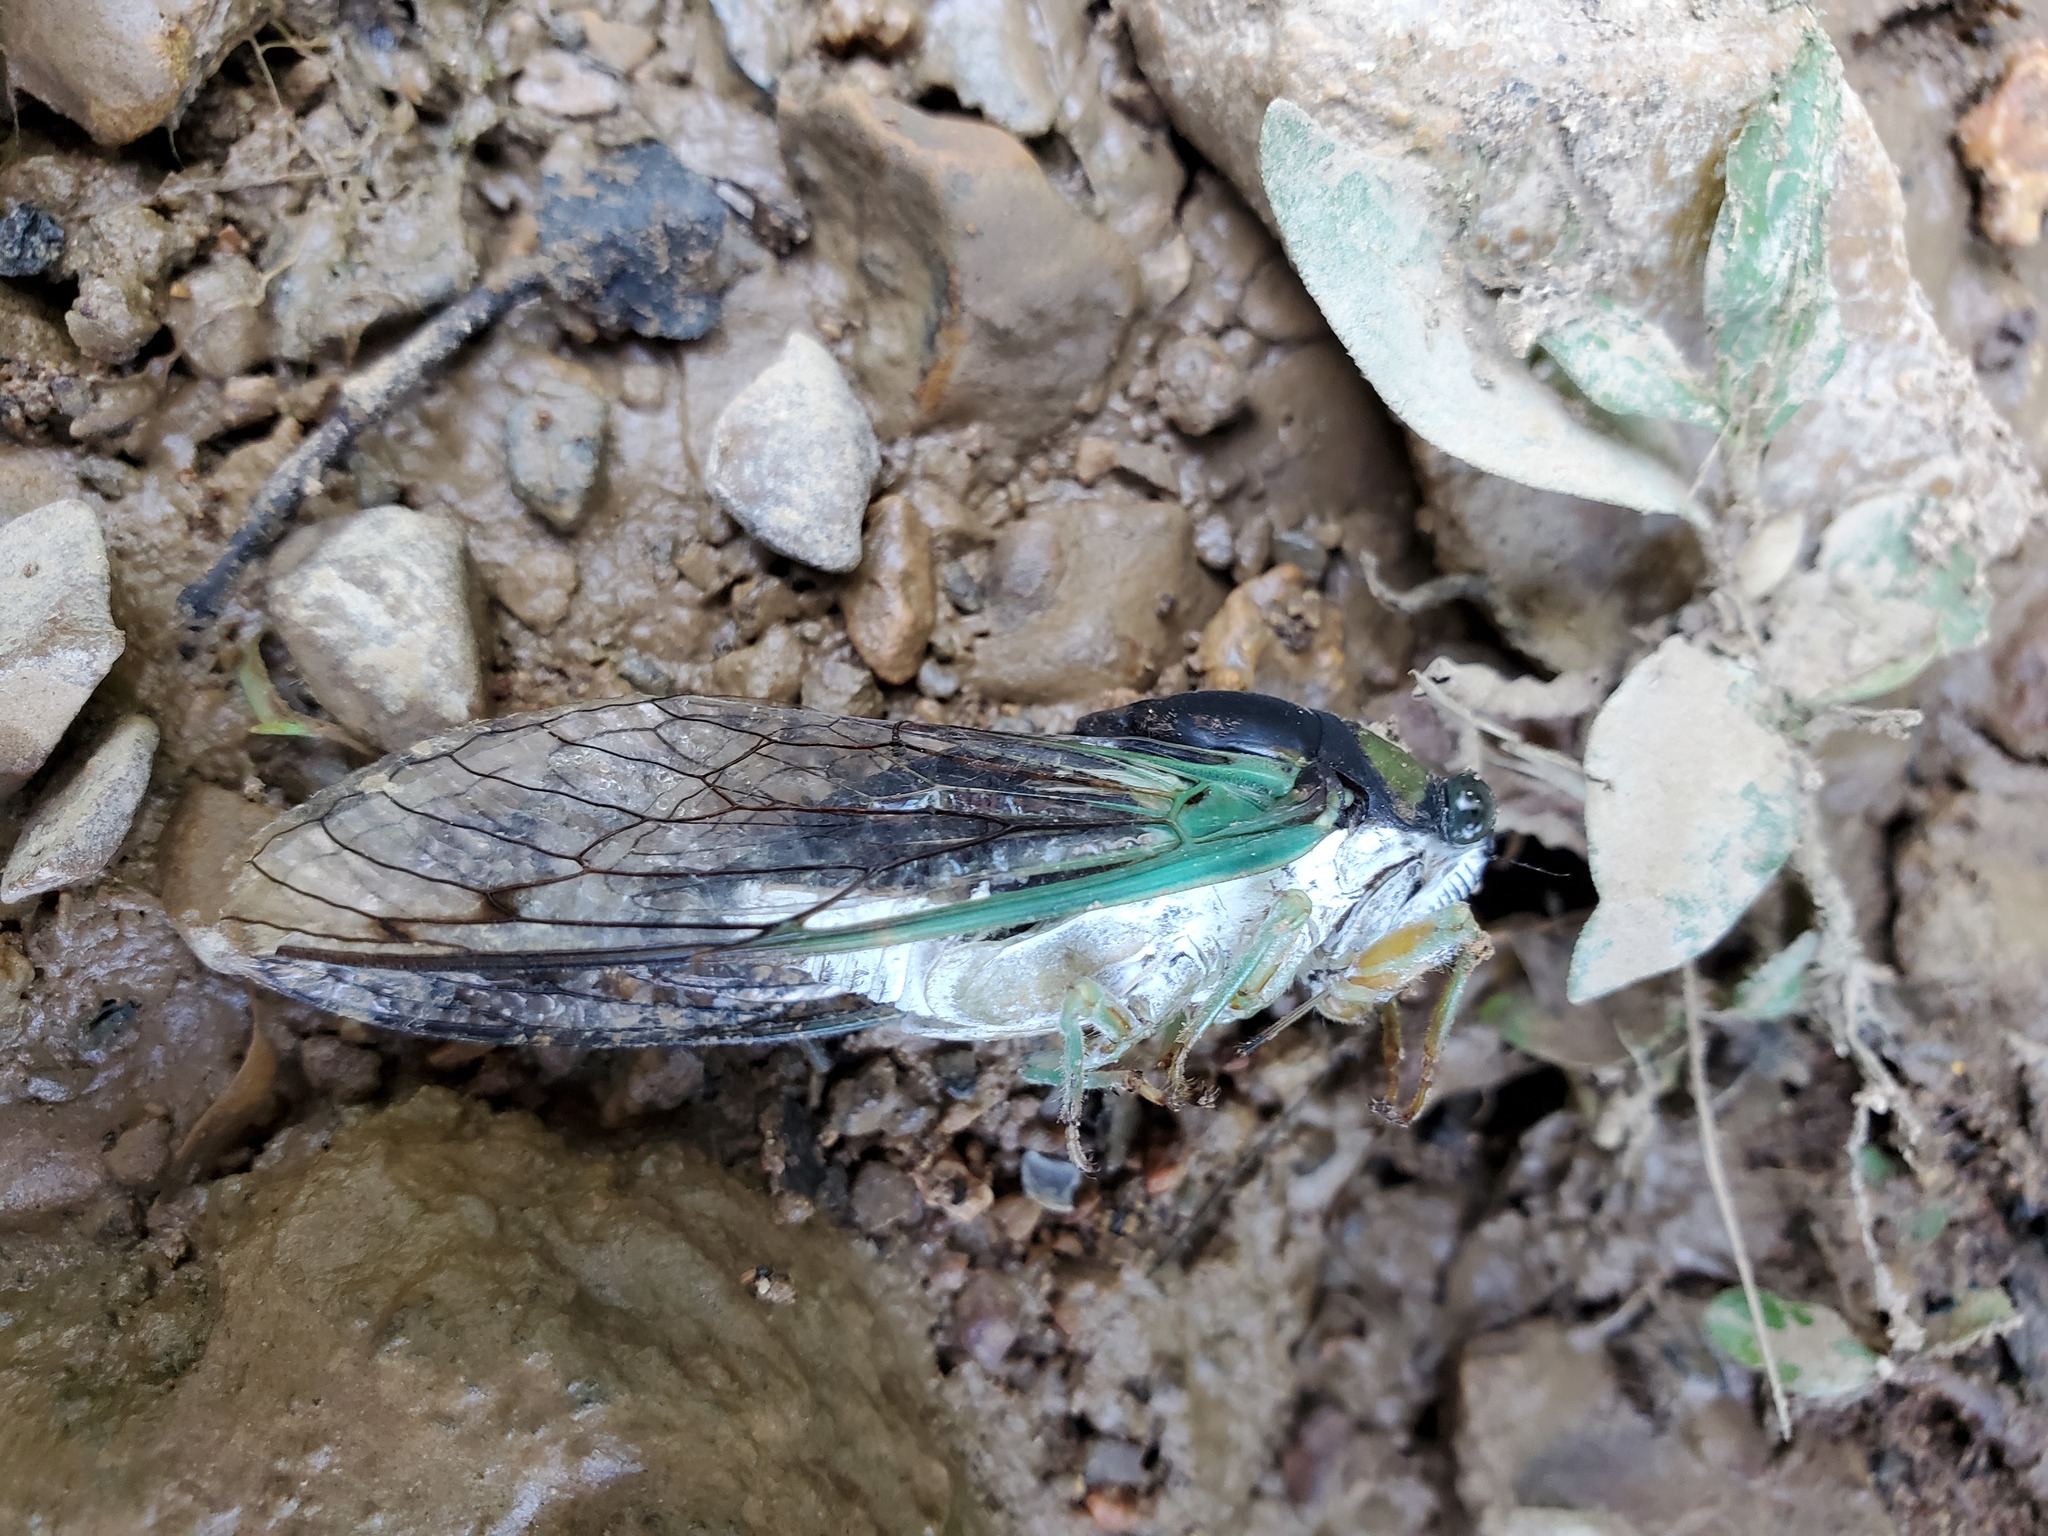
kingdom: Animalia
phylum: Arthropoda
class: Insecta
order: Hemiptera
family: Cicadidae
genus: Neotibicen
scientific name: Neotibicen tibicen
